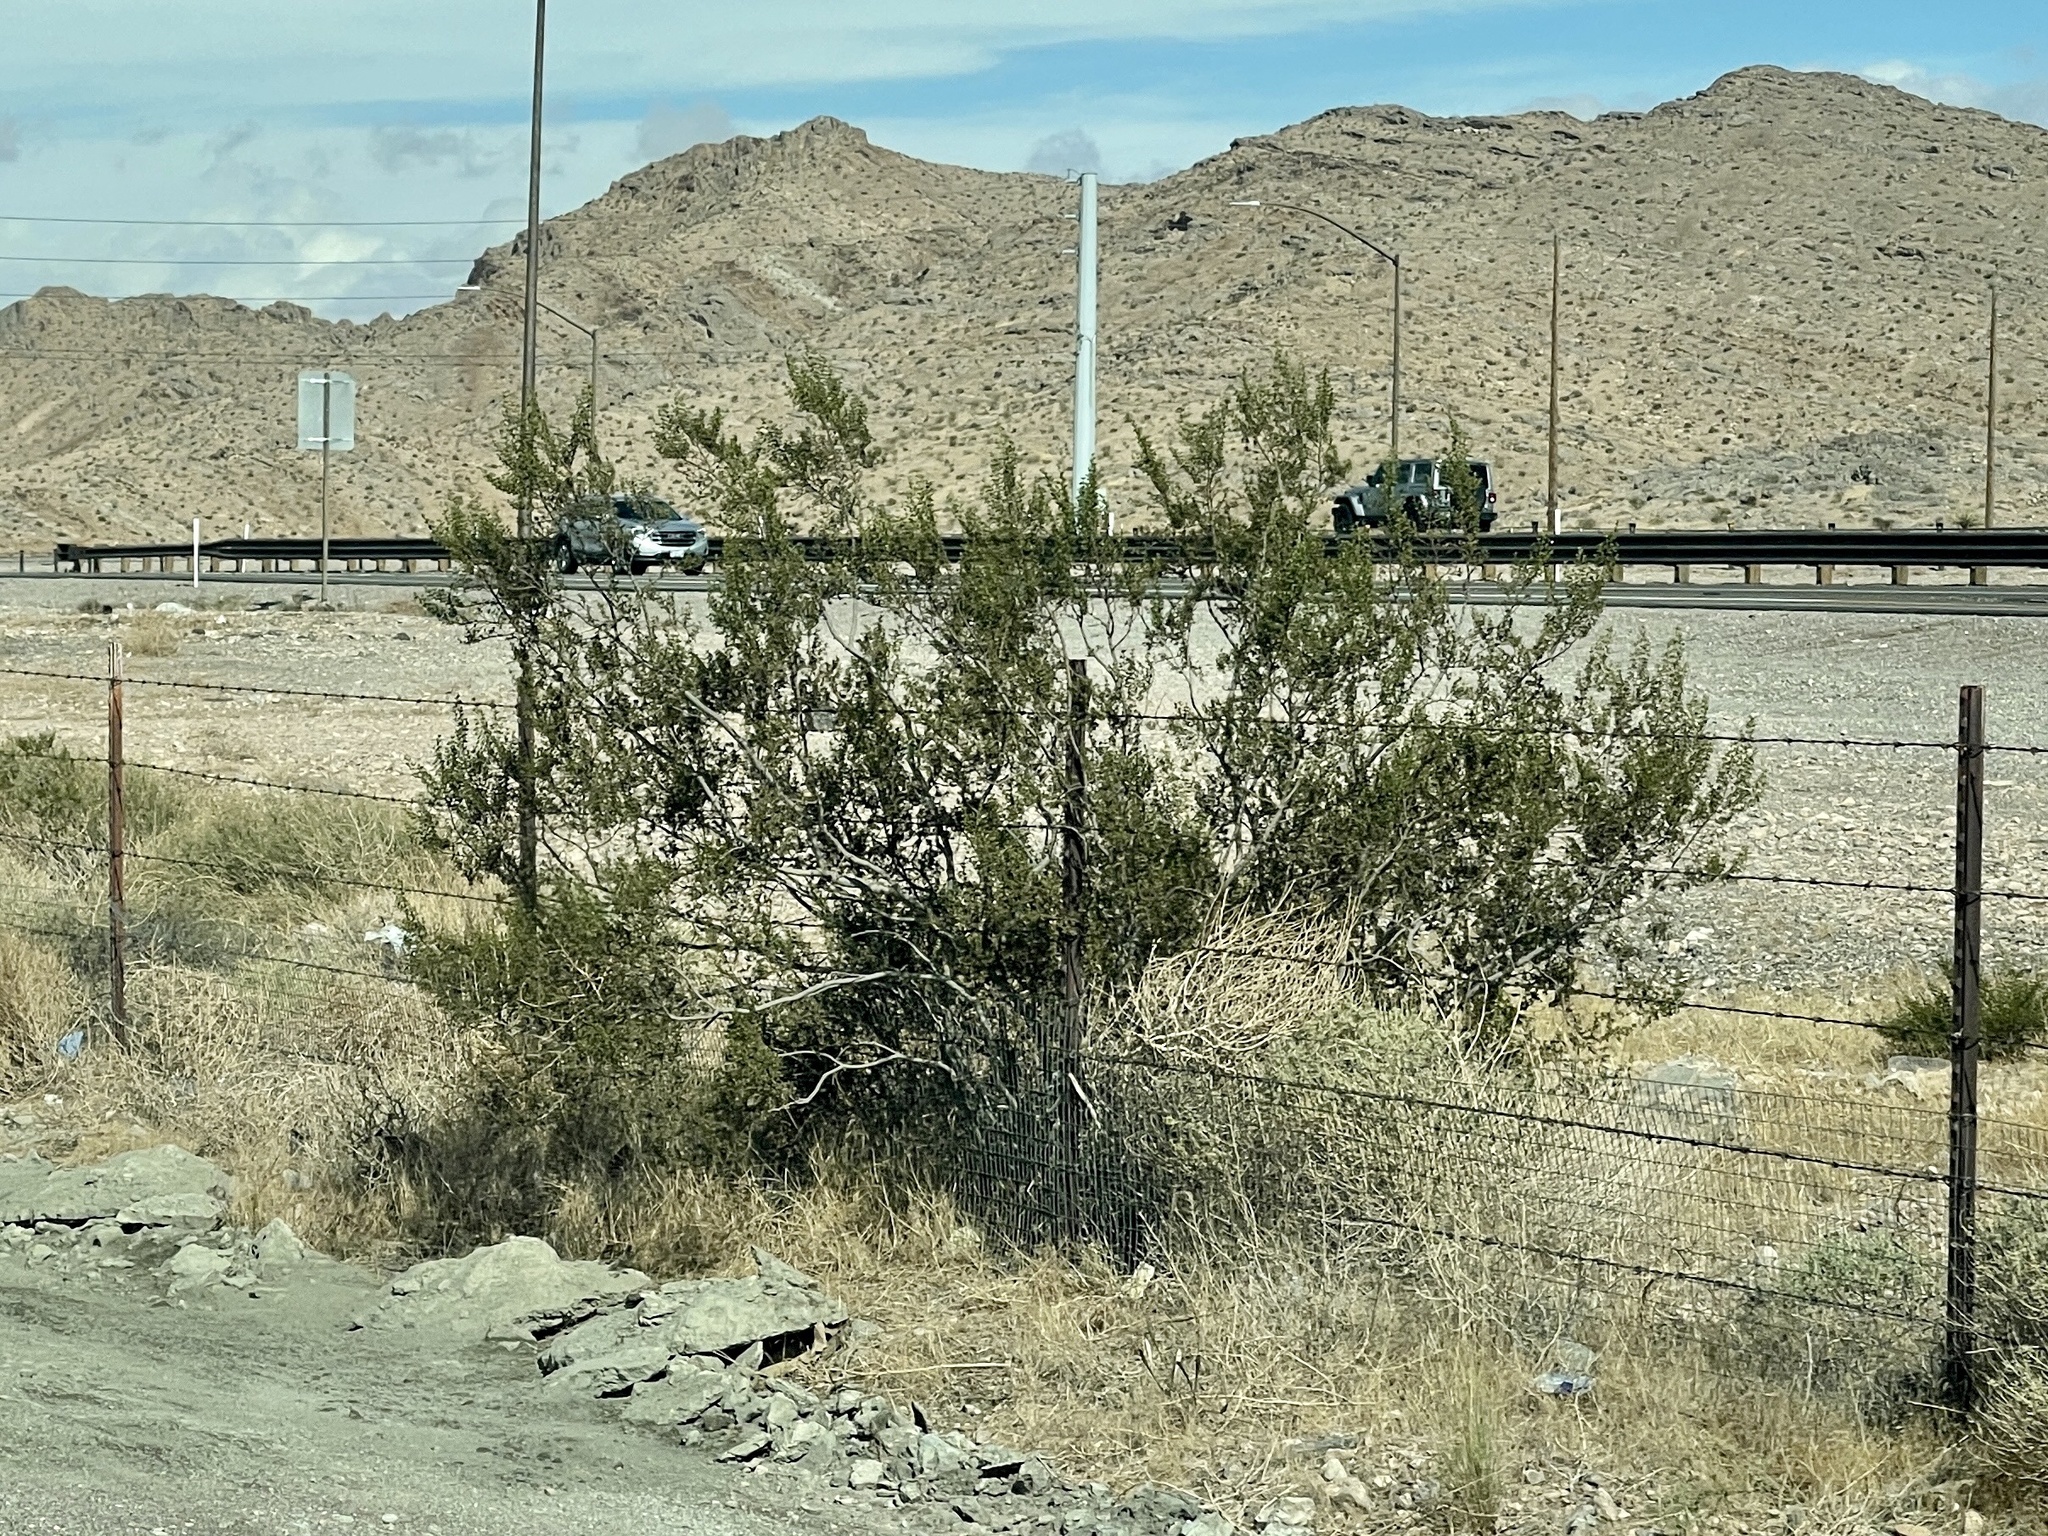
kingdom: Plantae
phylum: Tracheophyta
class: Magnoliopsida
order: Zygophyllales
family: Zygophyllaceae
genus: Larrea
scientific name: Larrea tridentata
